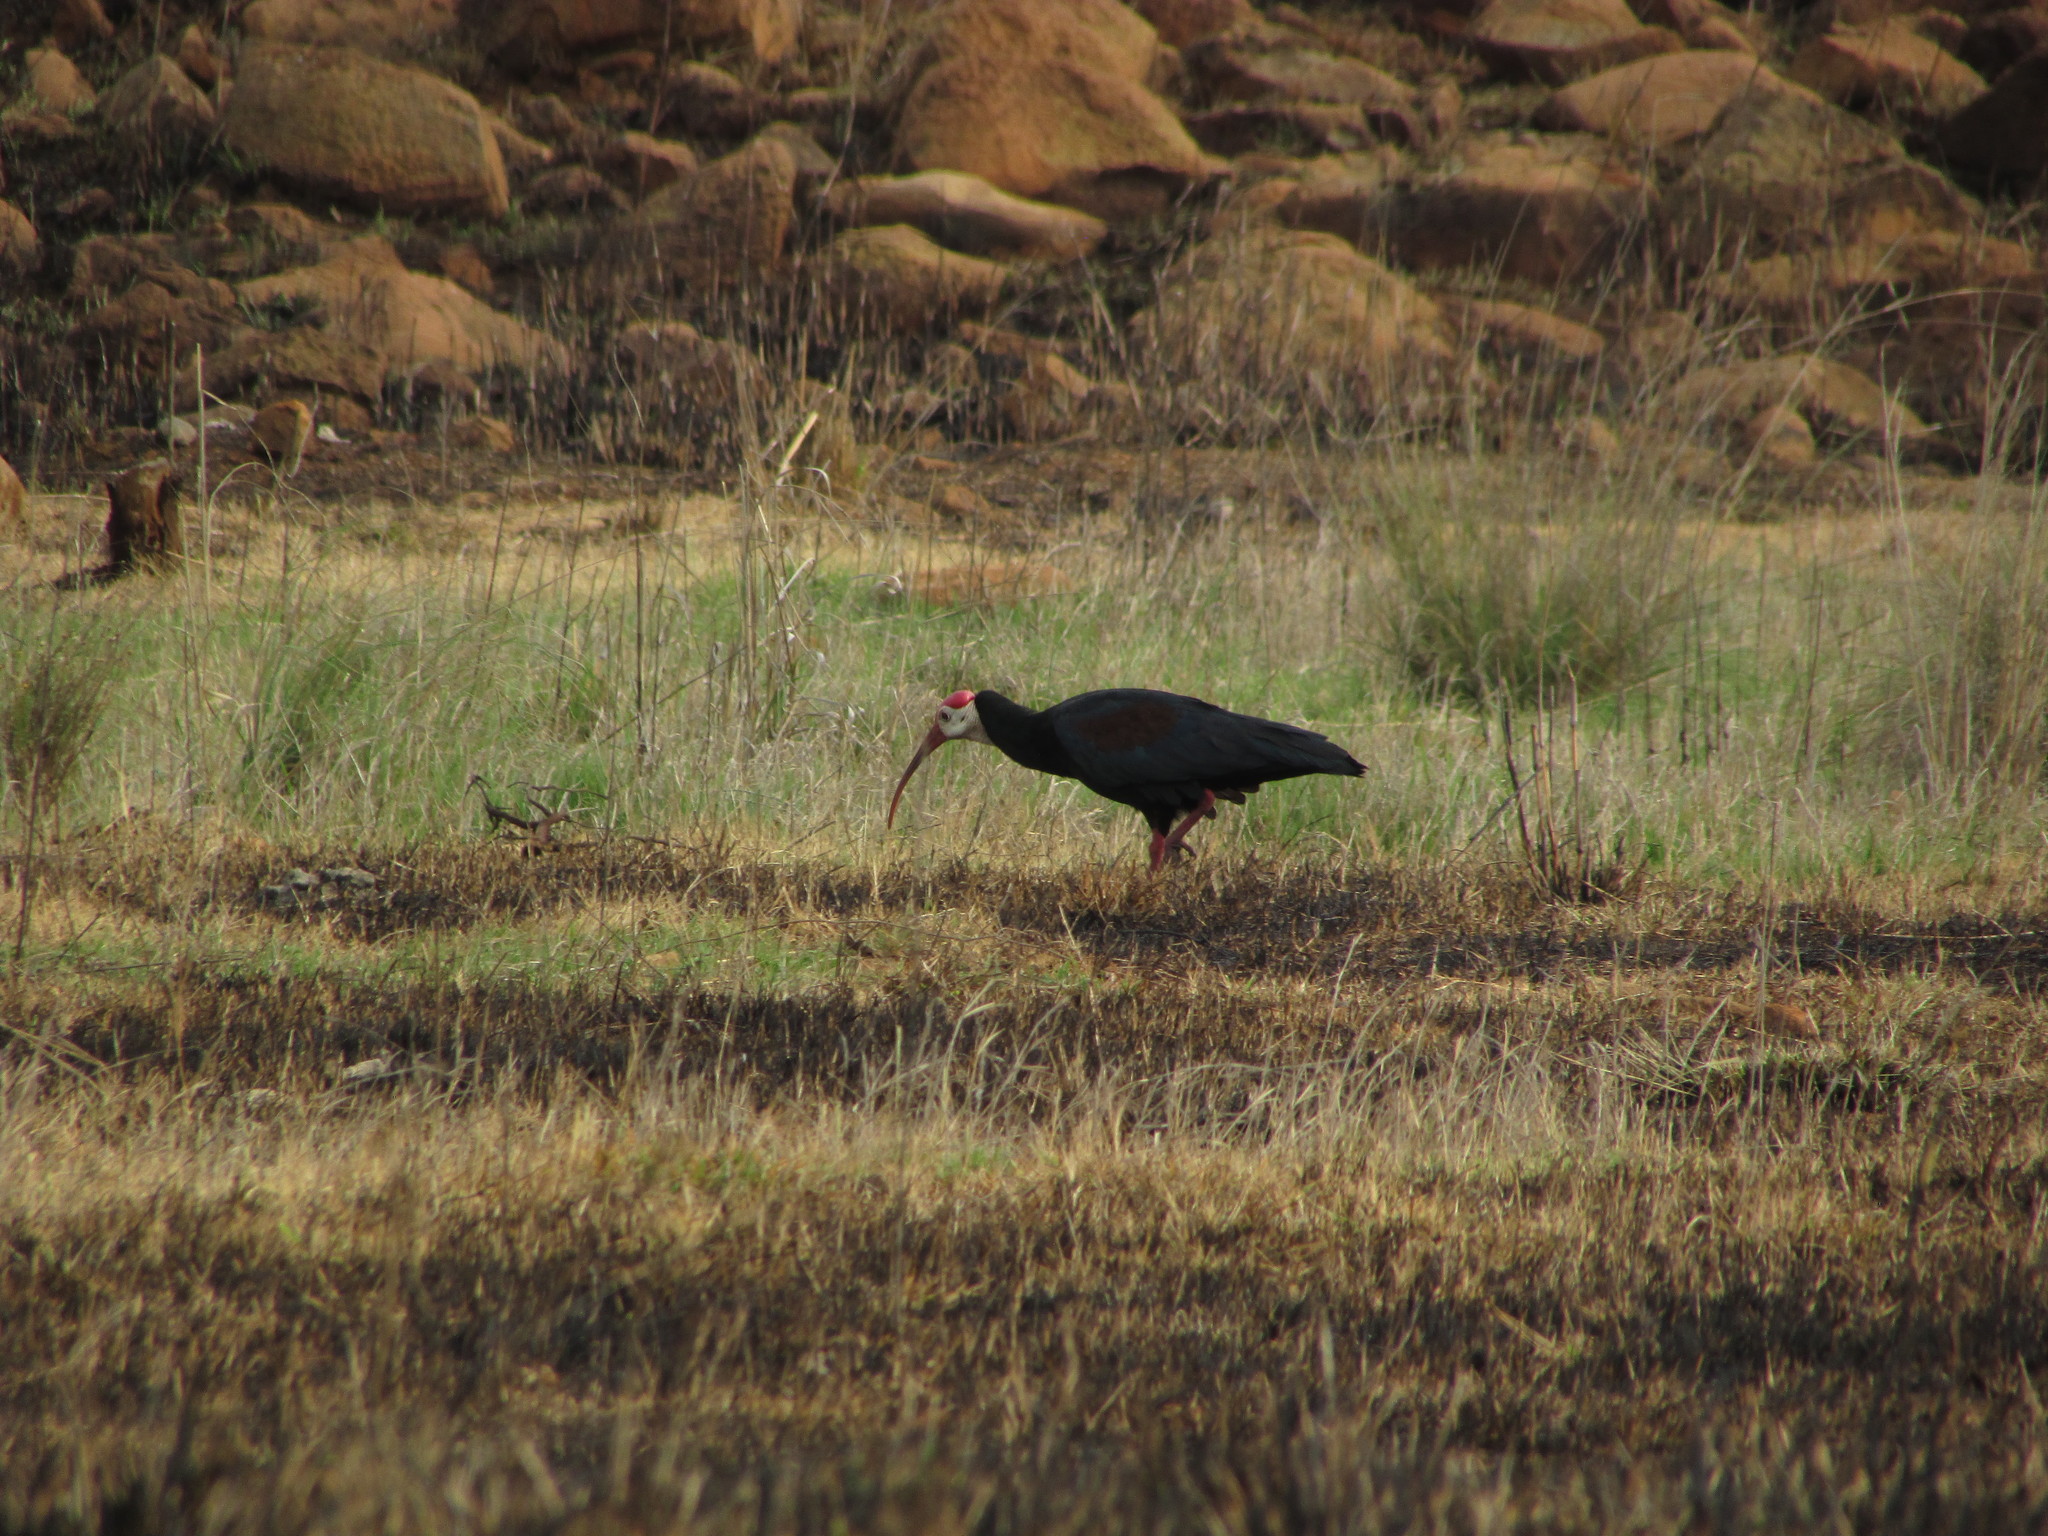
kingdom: Animalia
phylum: Chordata
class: Aves
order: Pelecaniformes
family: Threskiornithidae
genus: Geronticus
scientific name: Geronticus calvus
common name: Southern bald ibis
